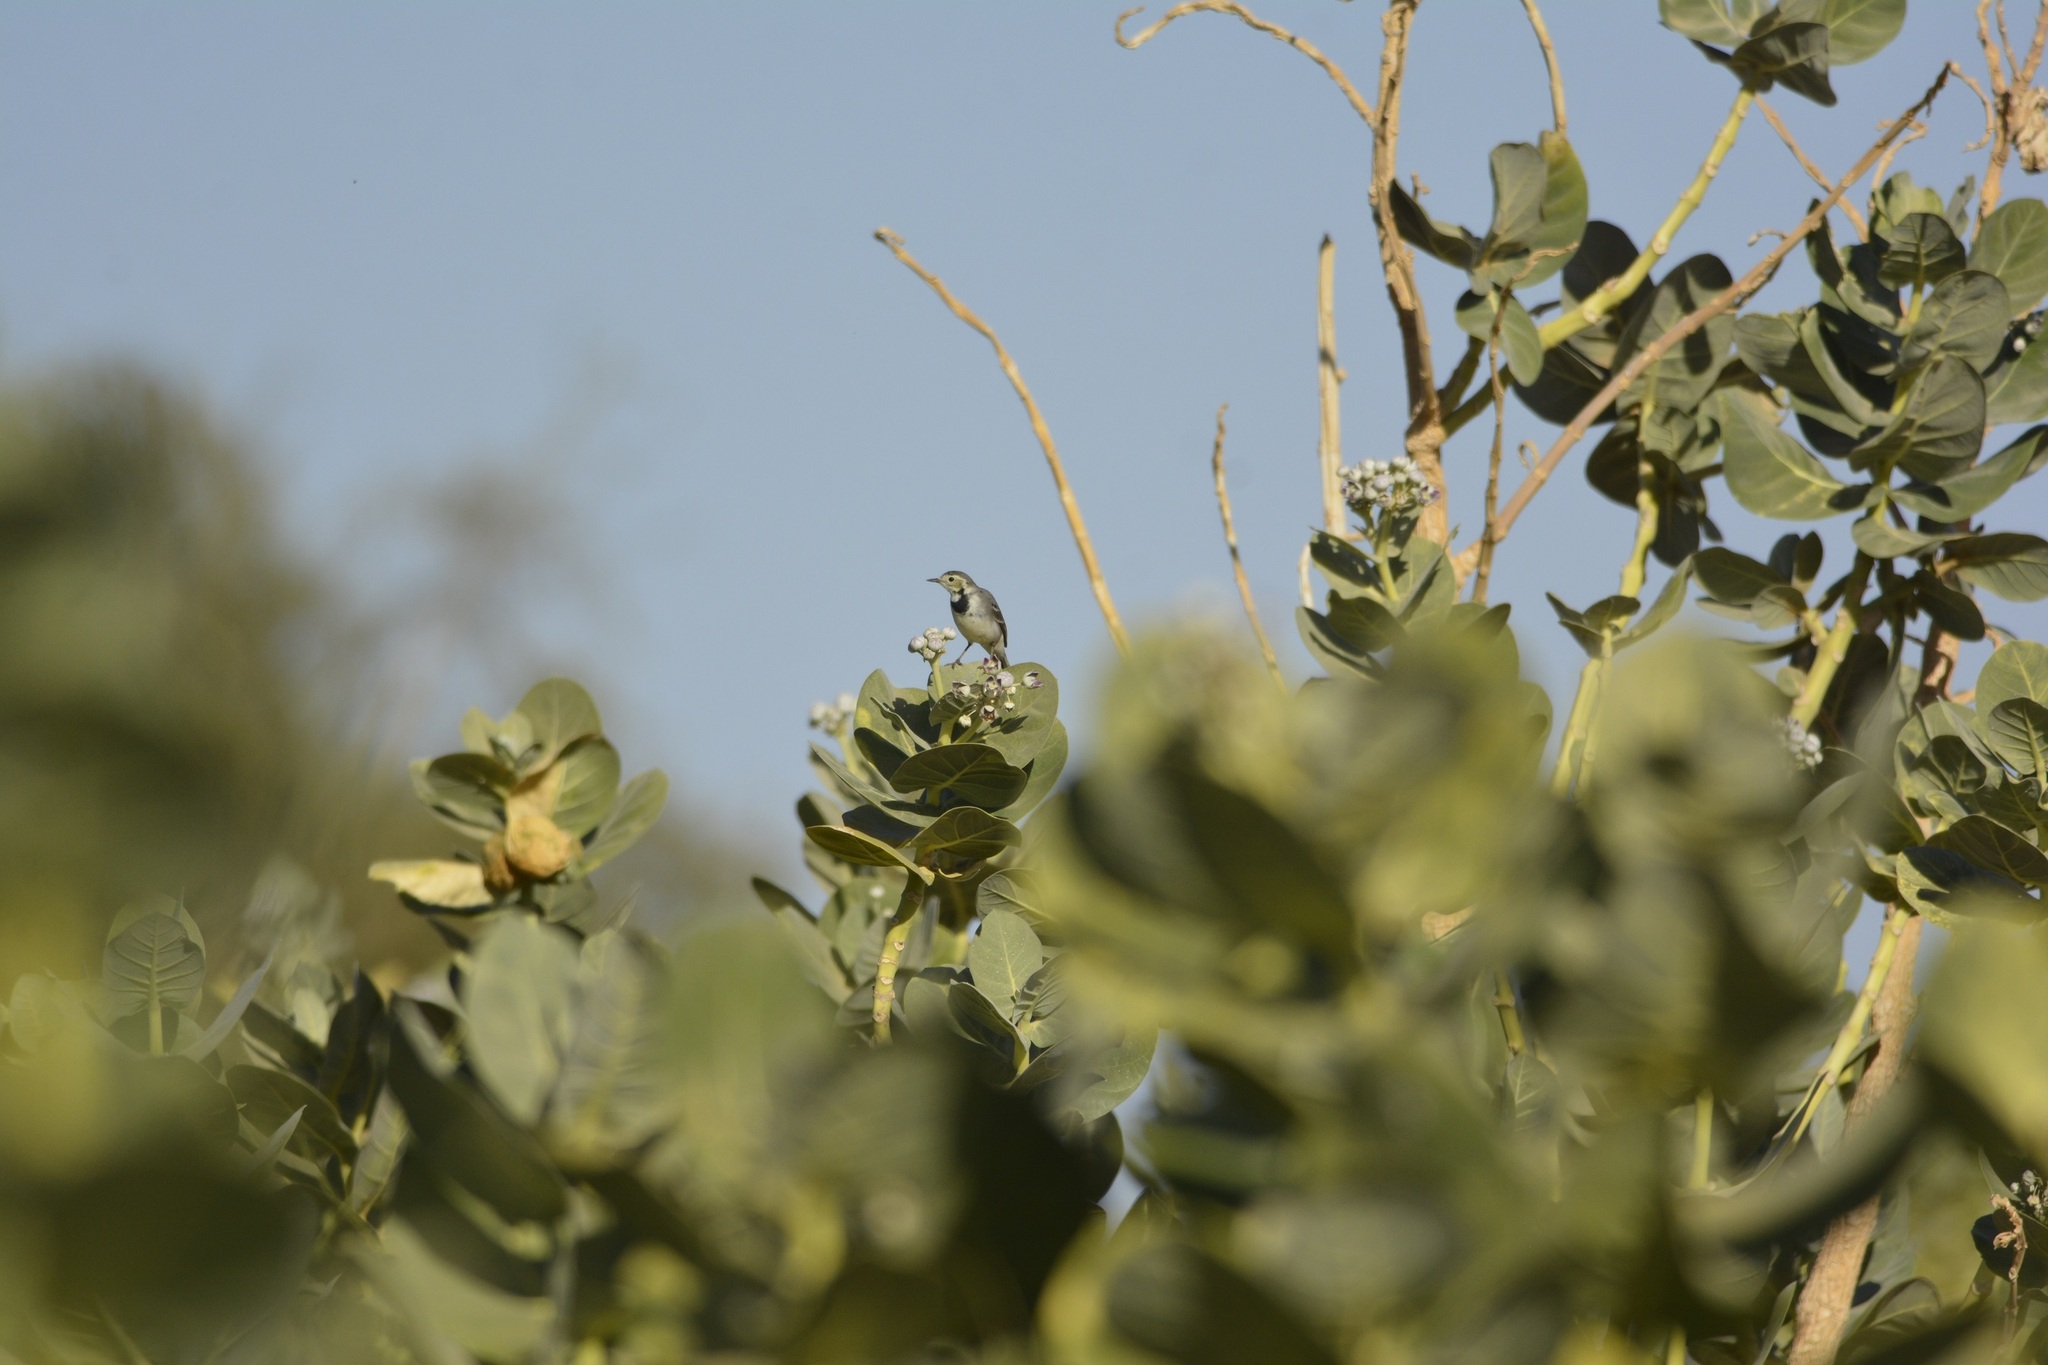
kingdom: Animalia
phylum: Chordata
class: Aves
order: Passeriformes
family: Motacillidae
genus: Motacilla
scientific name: Motacilla alba
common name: White wagtail
